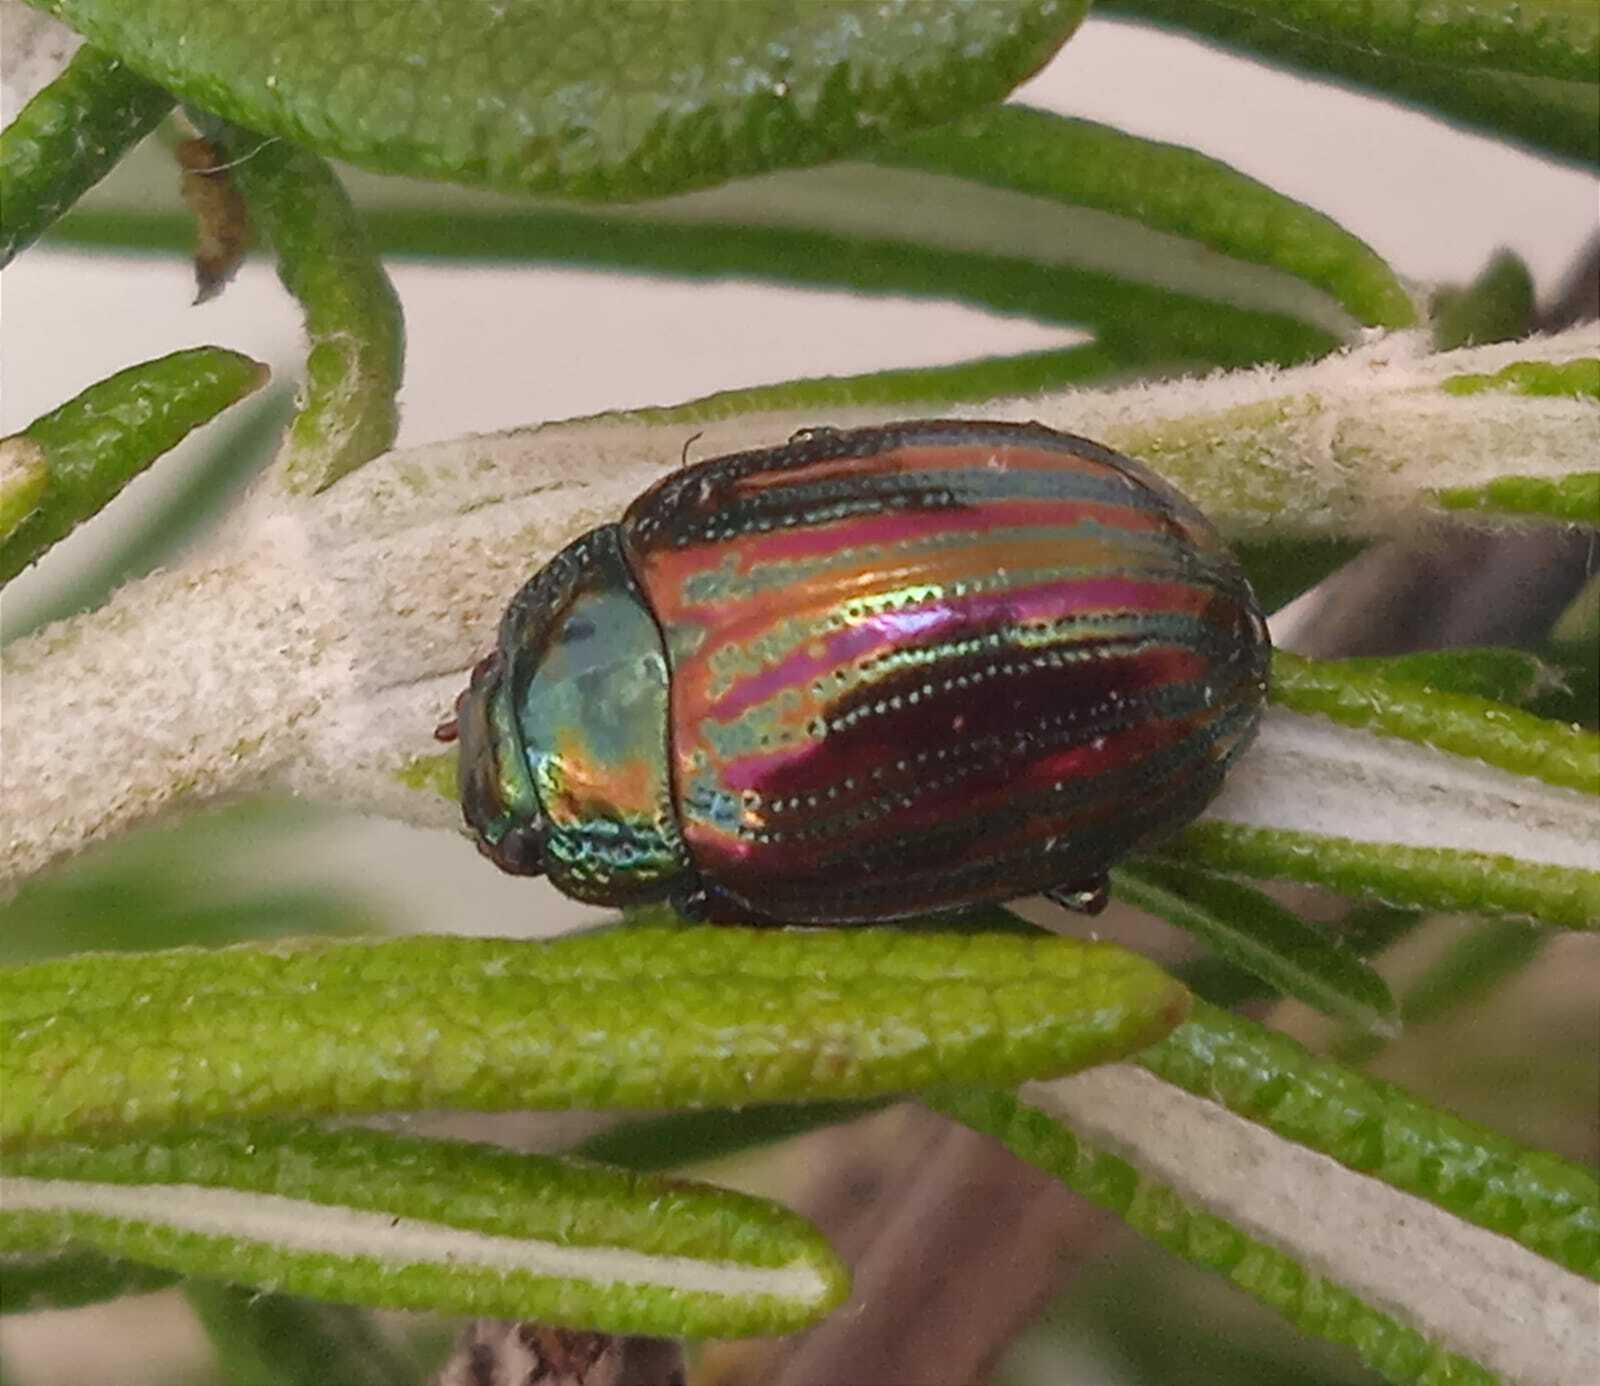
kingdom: Animalia
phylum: Arthropoda
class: Insecta
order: Coleoptera
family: Chrysomelidae
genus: Chrysolina
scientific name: Chrysolina americana
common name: Rosemary beetle
